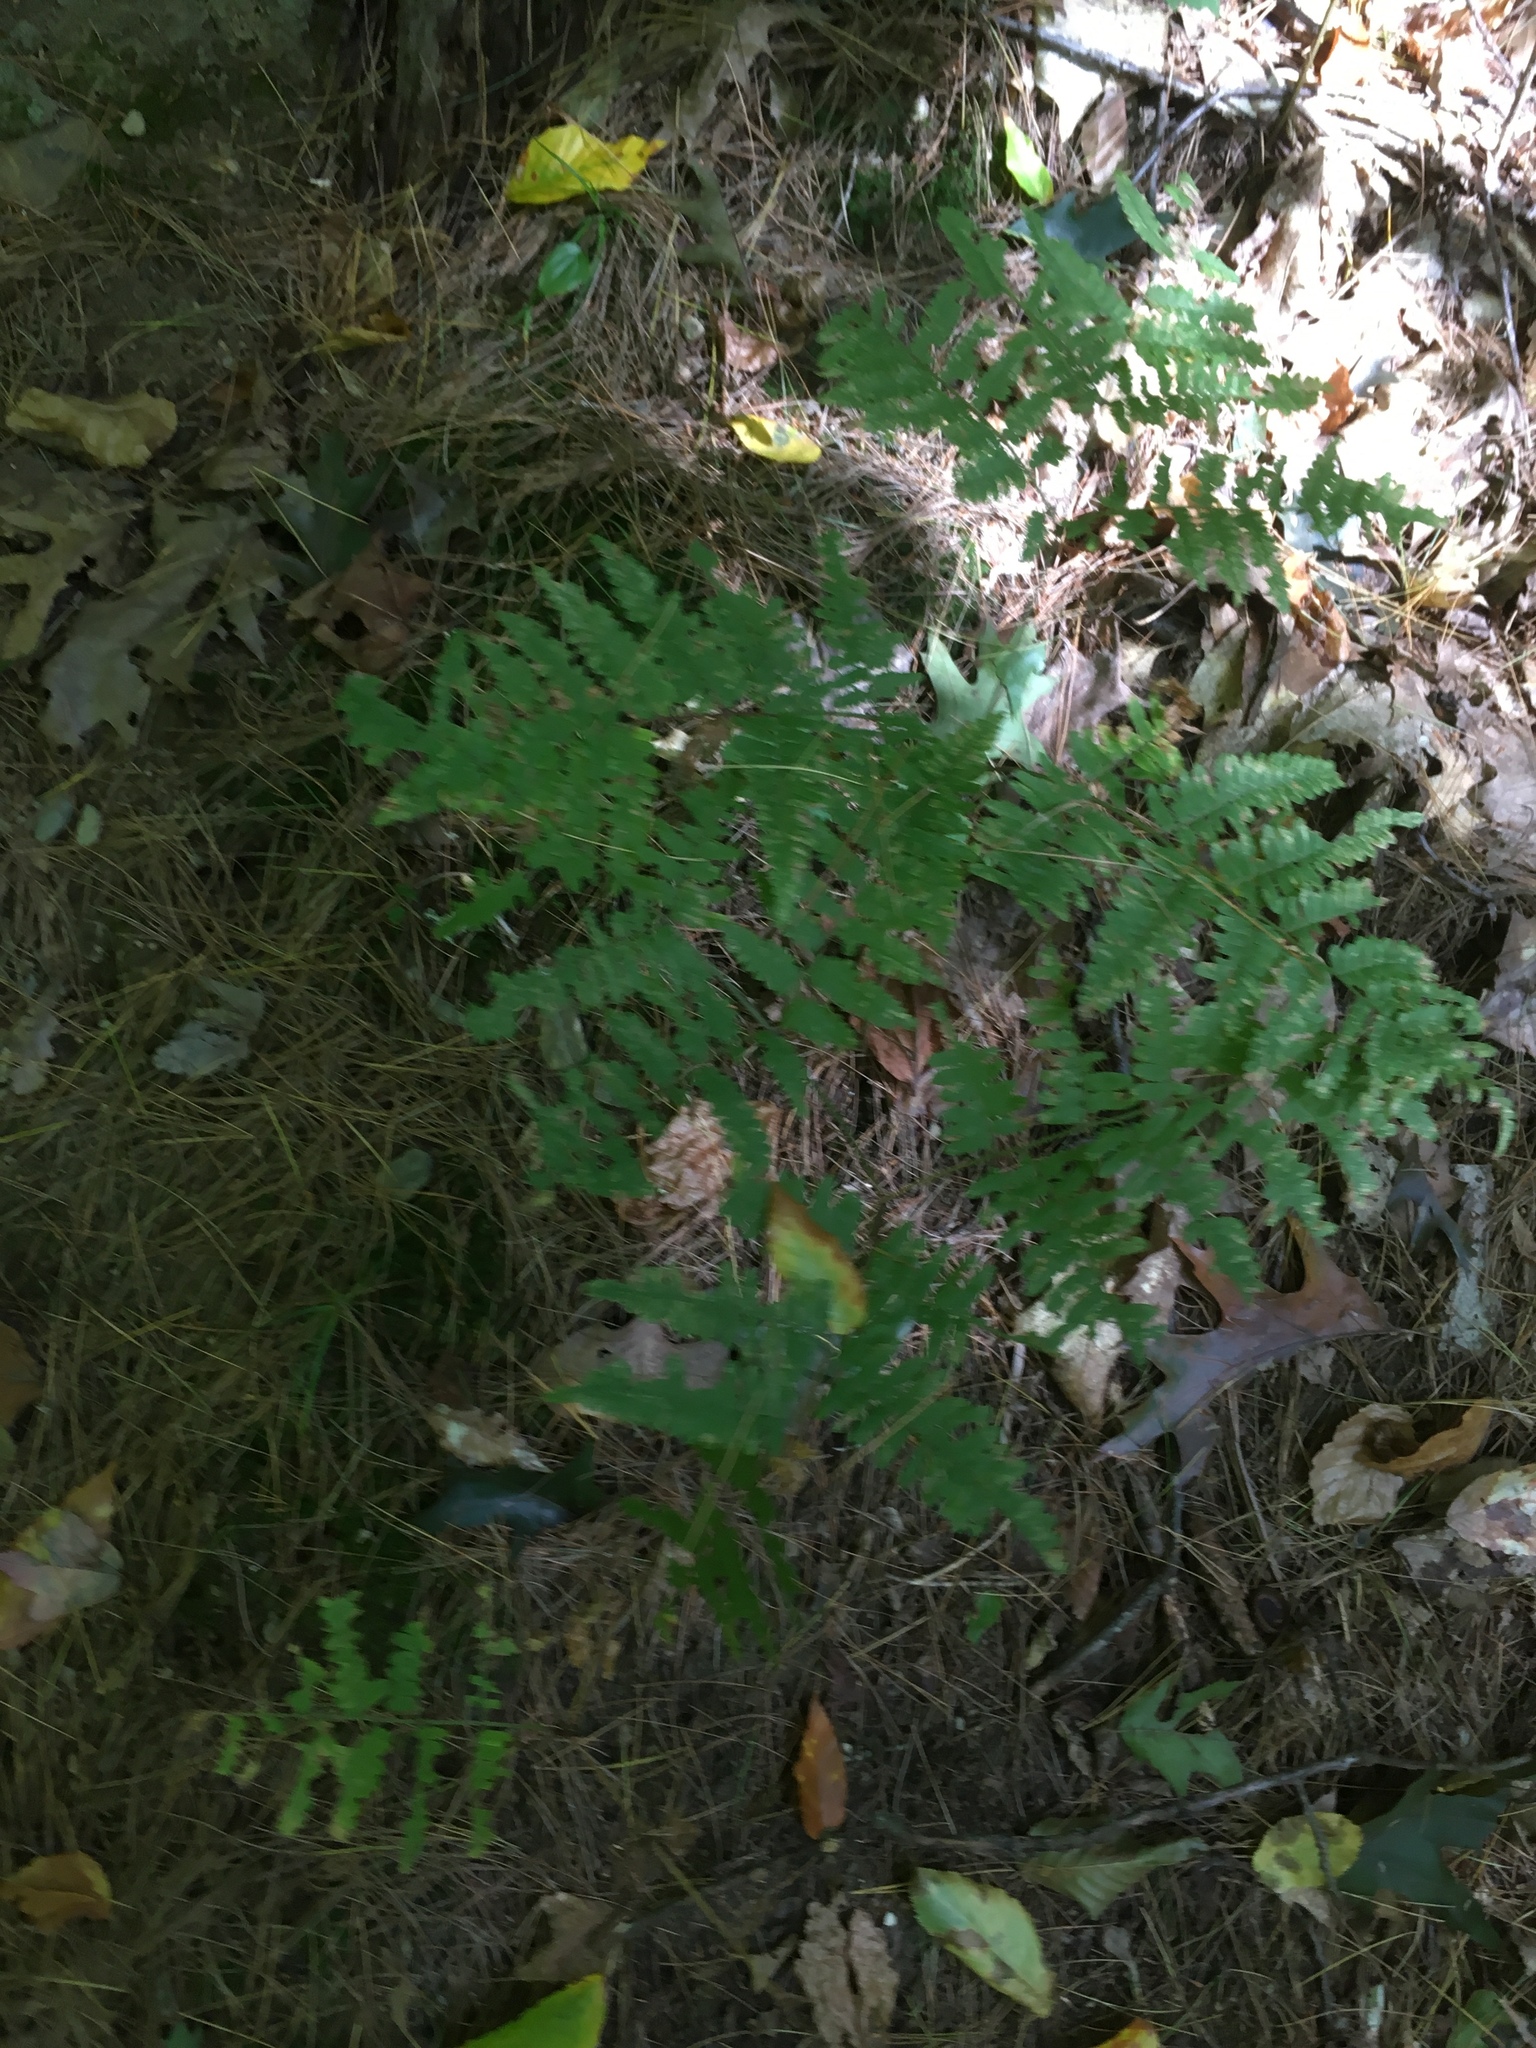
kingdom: Plantae
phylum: Tracheophyta
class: Polypodiopsida
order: Polypodiales
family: Dennstaedtiaceae
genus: Pteridium
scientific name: Pteridium aquilinum
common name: Bracken
